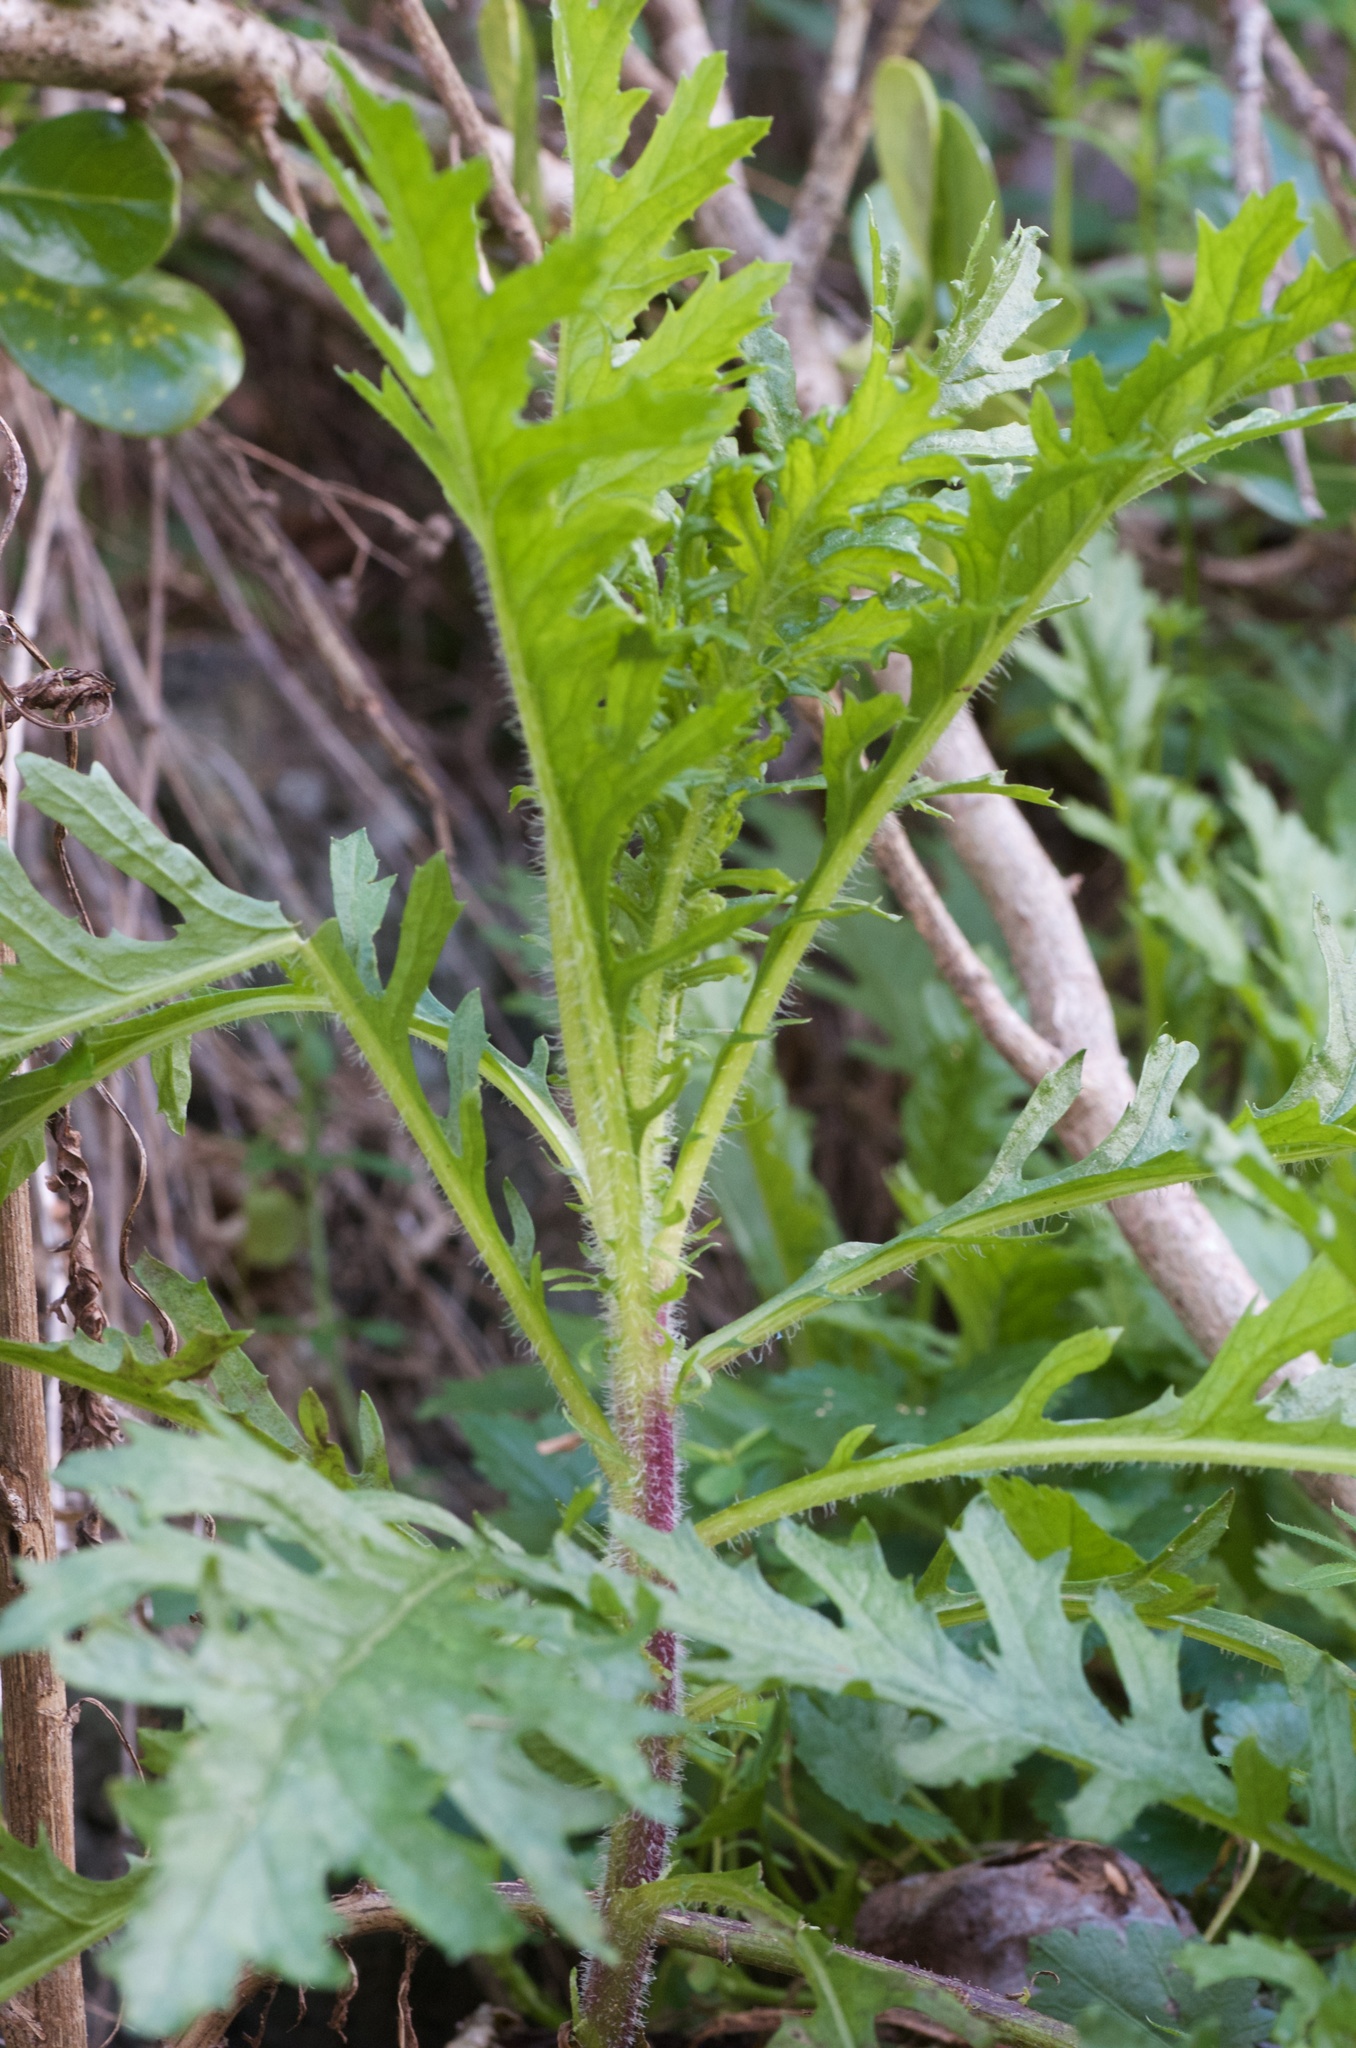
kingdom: Plantae
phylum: Tracheophyta
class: Magnoliopsida
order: Asterales
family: Asteraceae
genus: Senecio
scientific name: Senecio esleri
